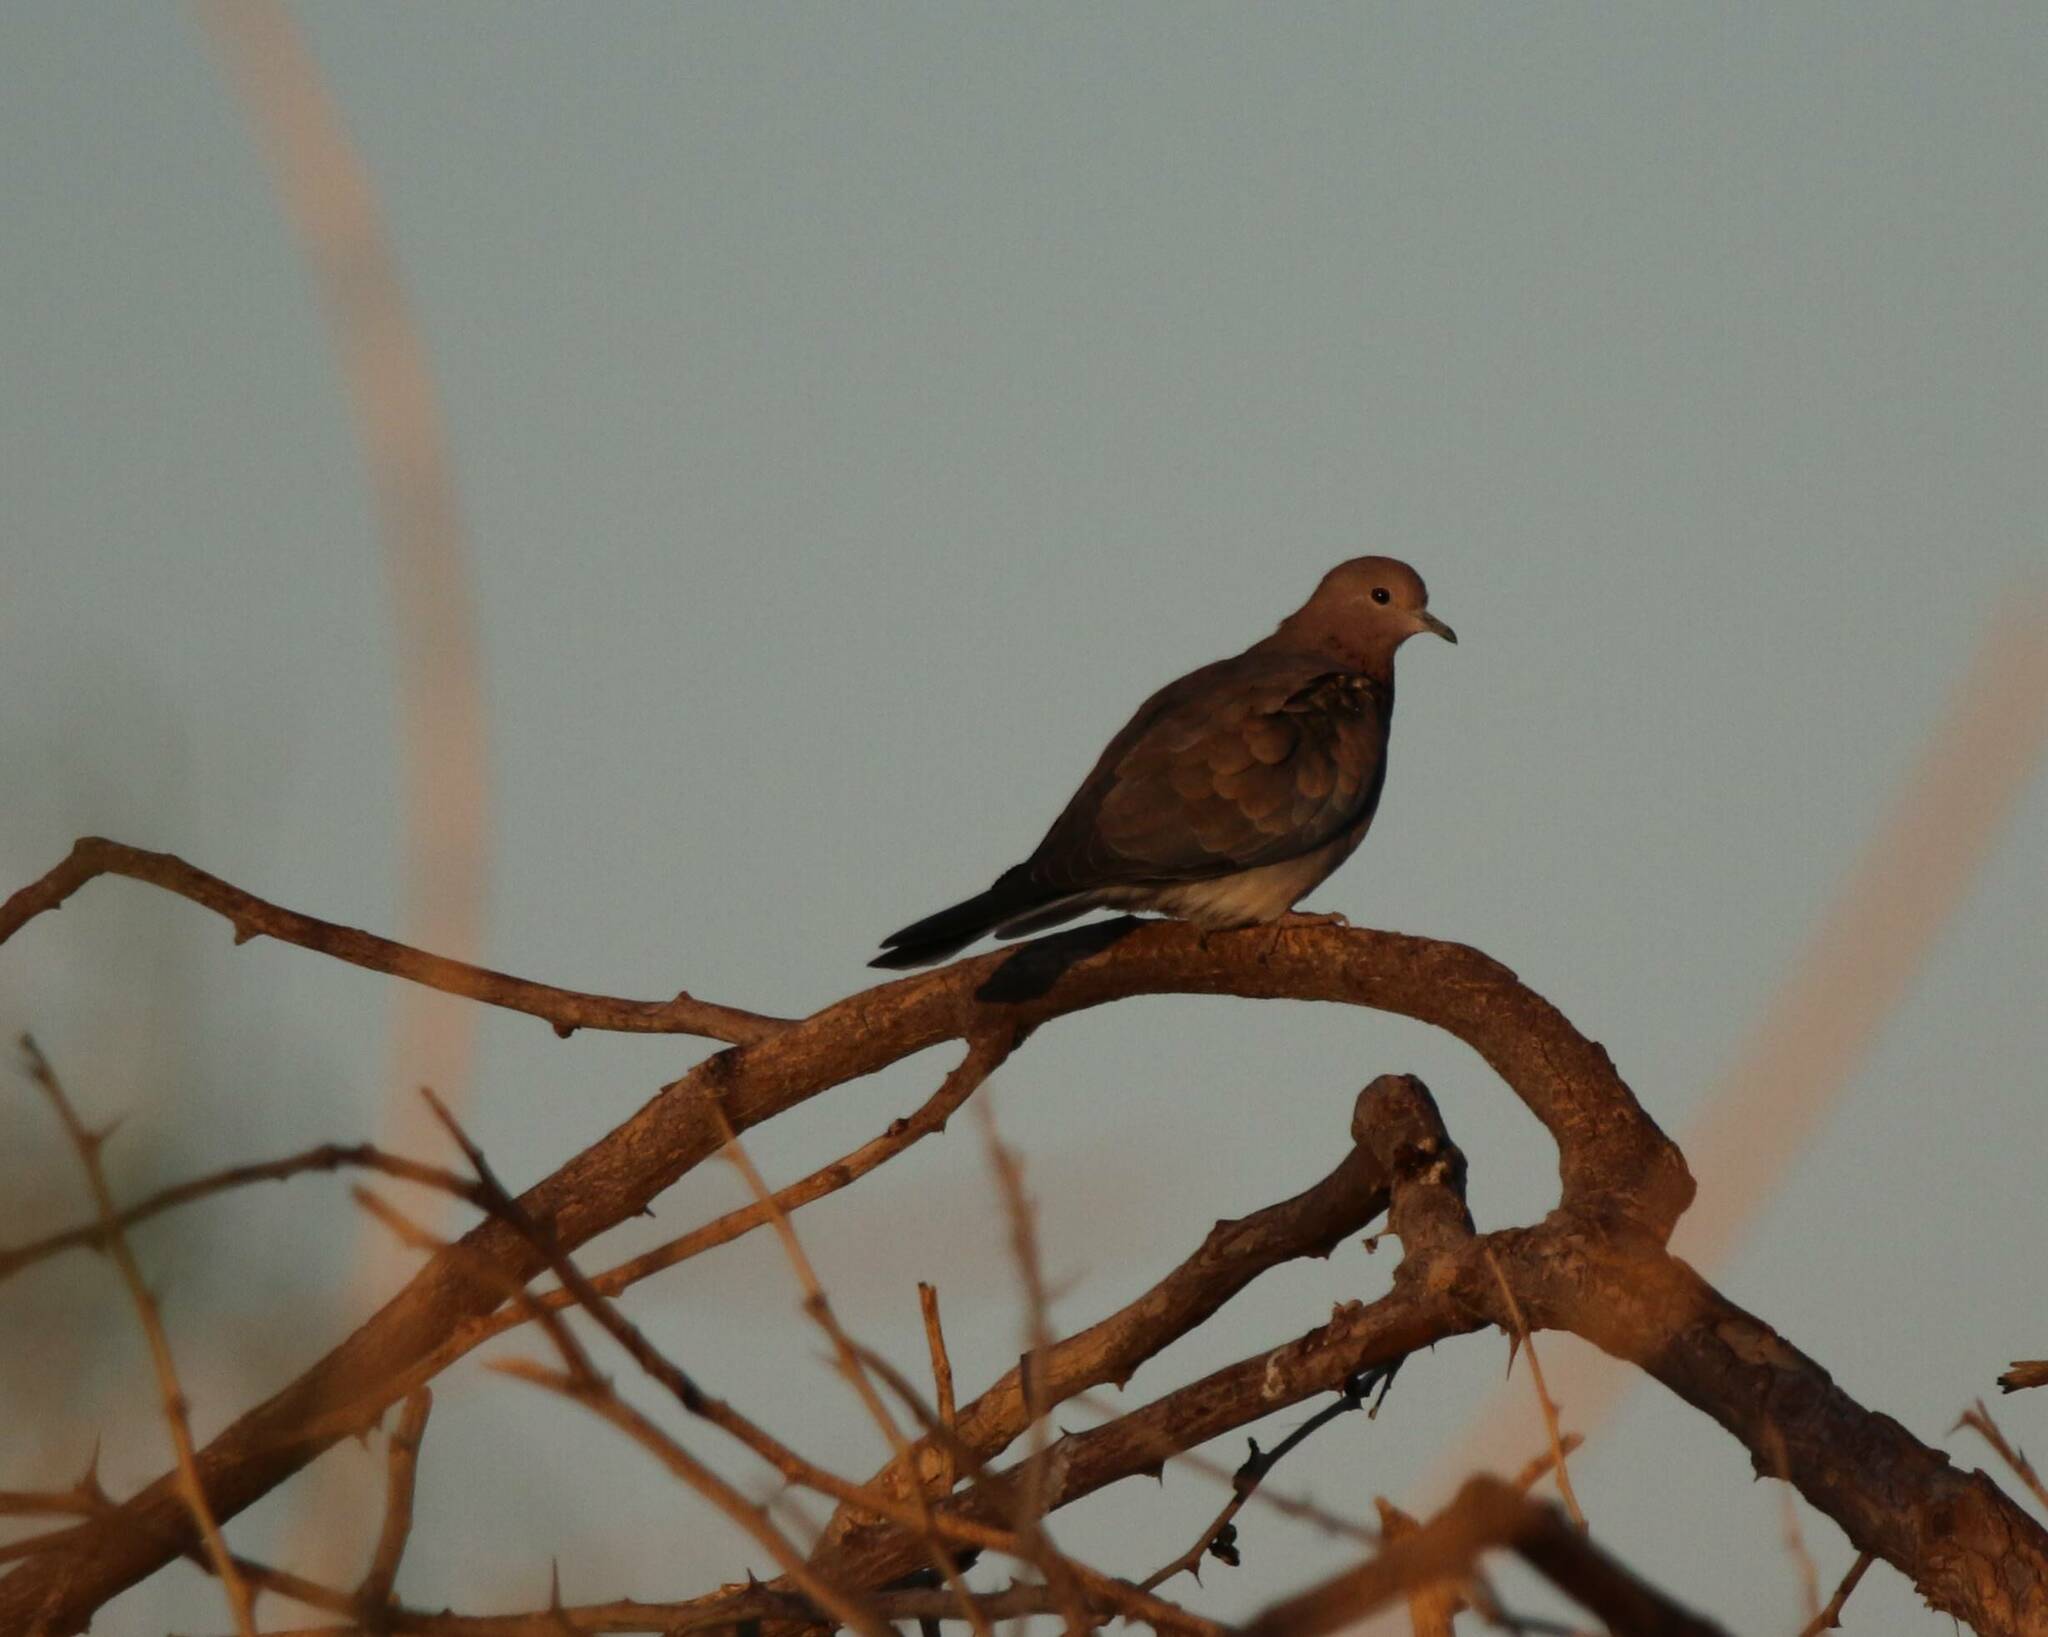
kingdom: Animalia
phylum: Chordata
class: Aves
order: Columbiformes
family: Columbidae
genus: Spilopelia
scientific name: Spilopelia senegalensis
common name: Laughing dove
